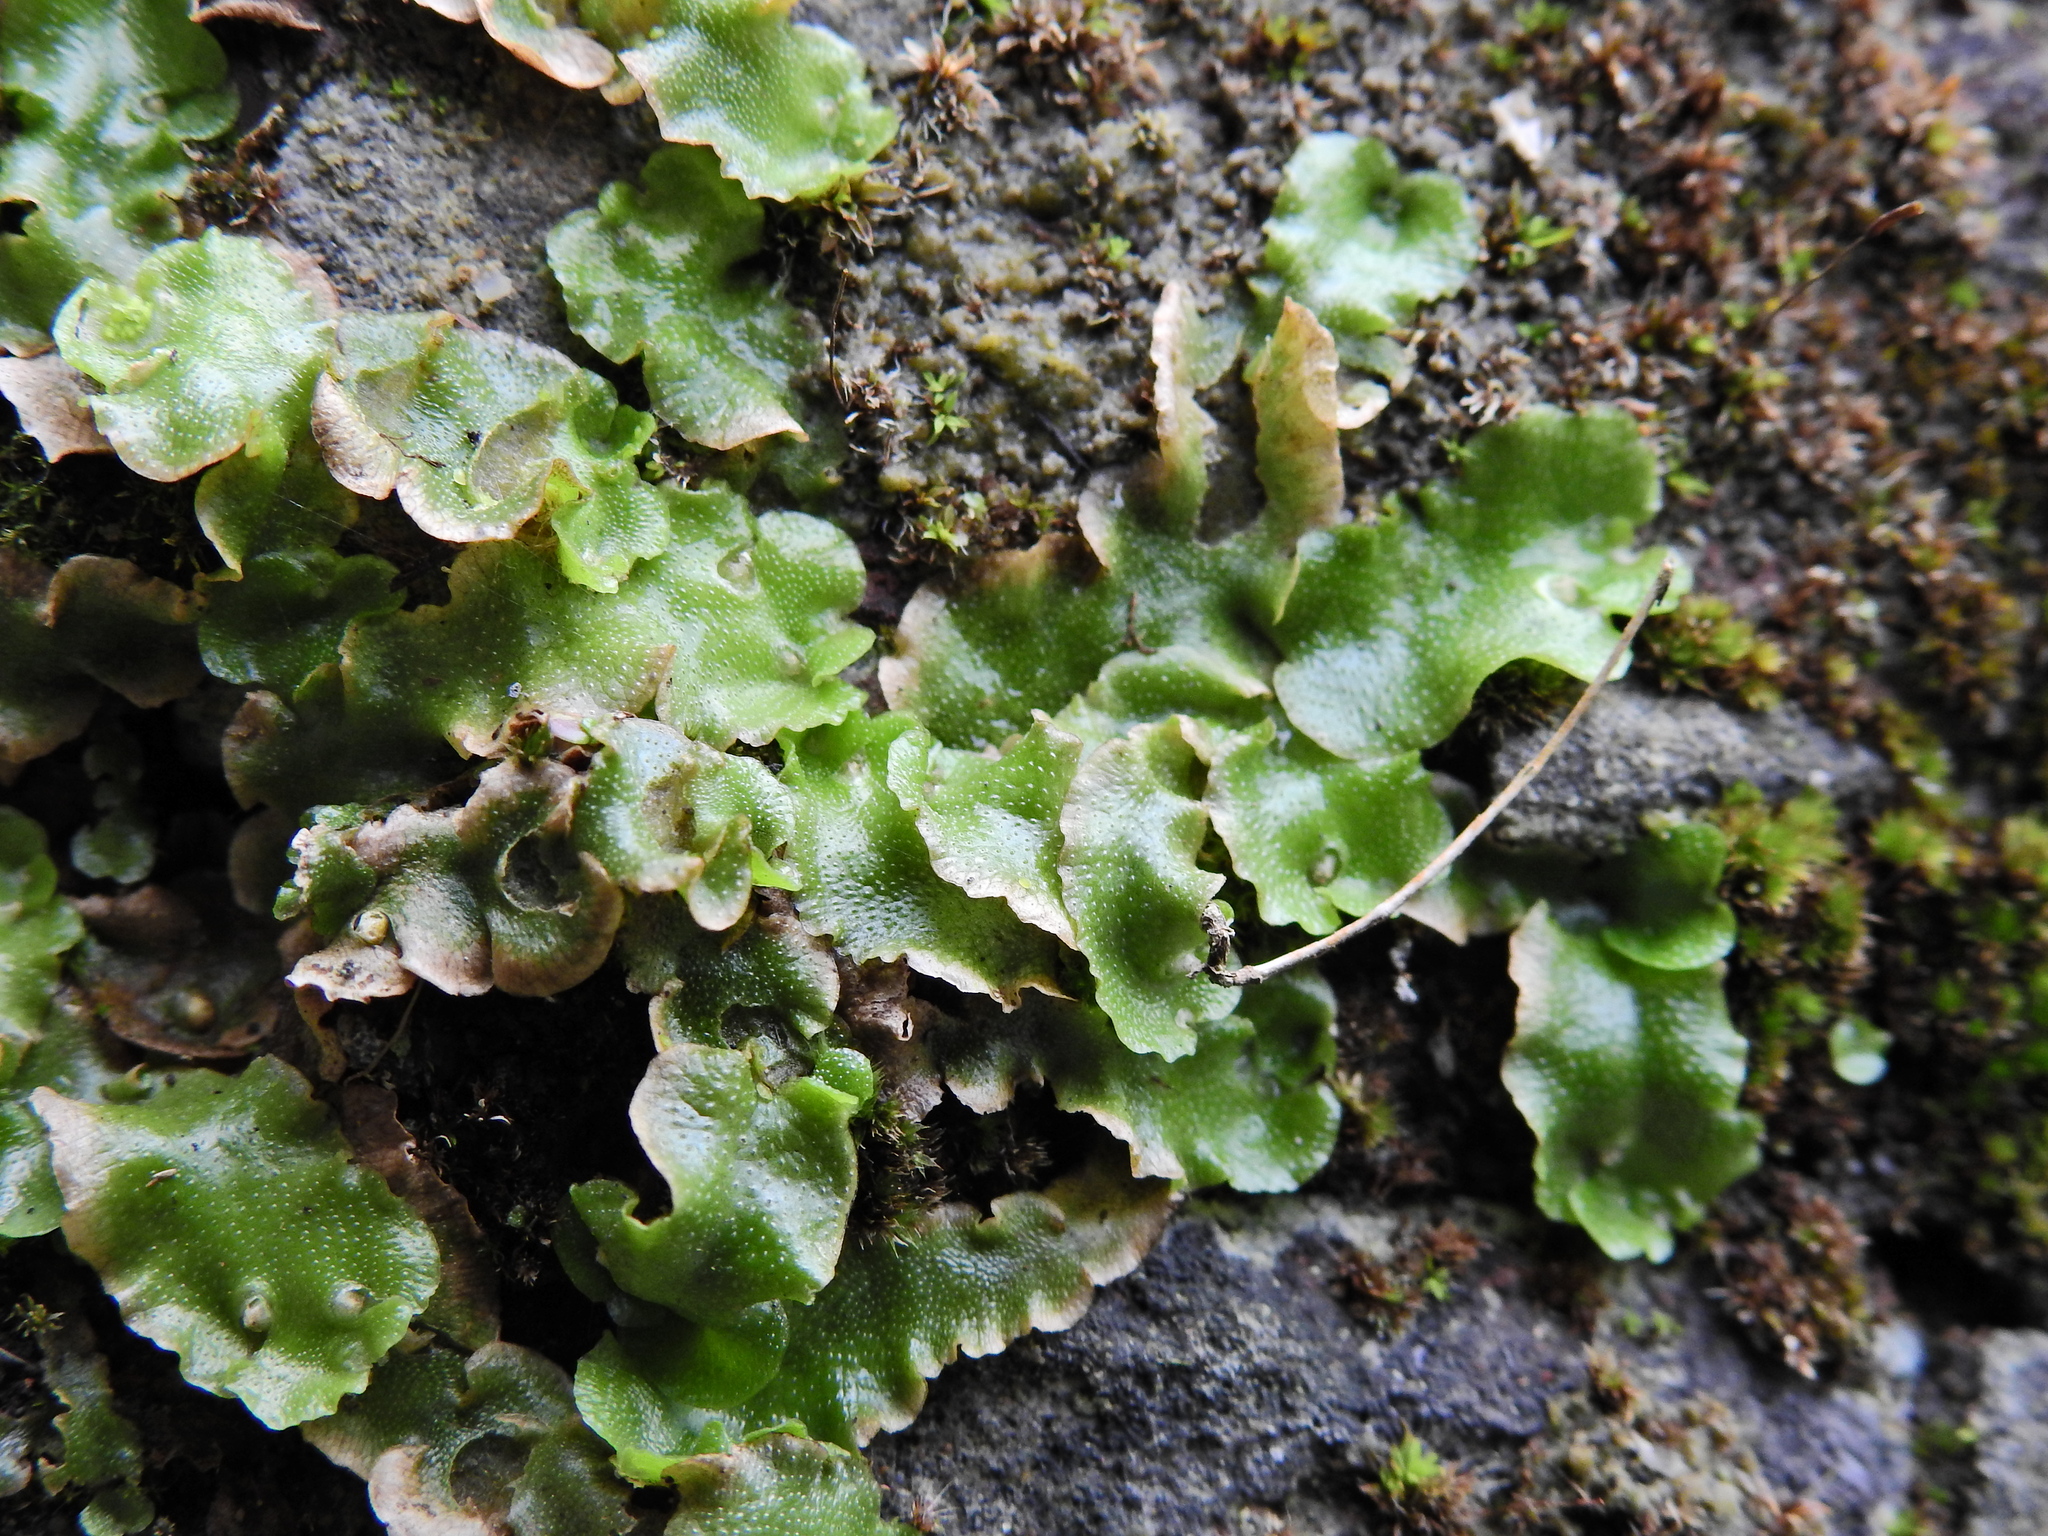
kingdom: Plantae
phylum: Marchantiophyta
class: Marchantiopsida
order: Lunulariales
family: Lunulariaceae
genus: Lunularia
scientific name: Lunularia cruciata
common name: Crescent-cup liverwort
